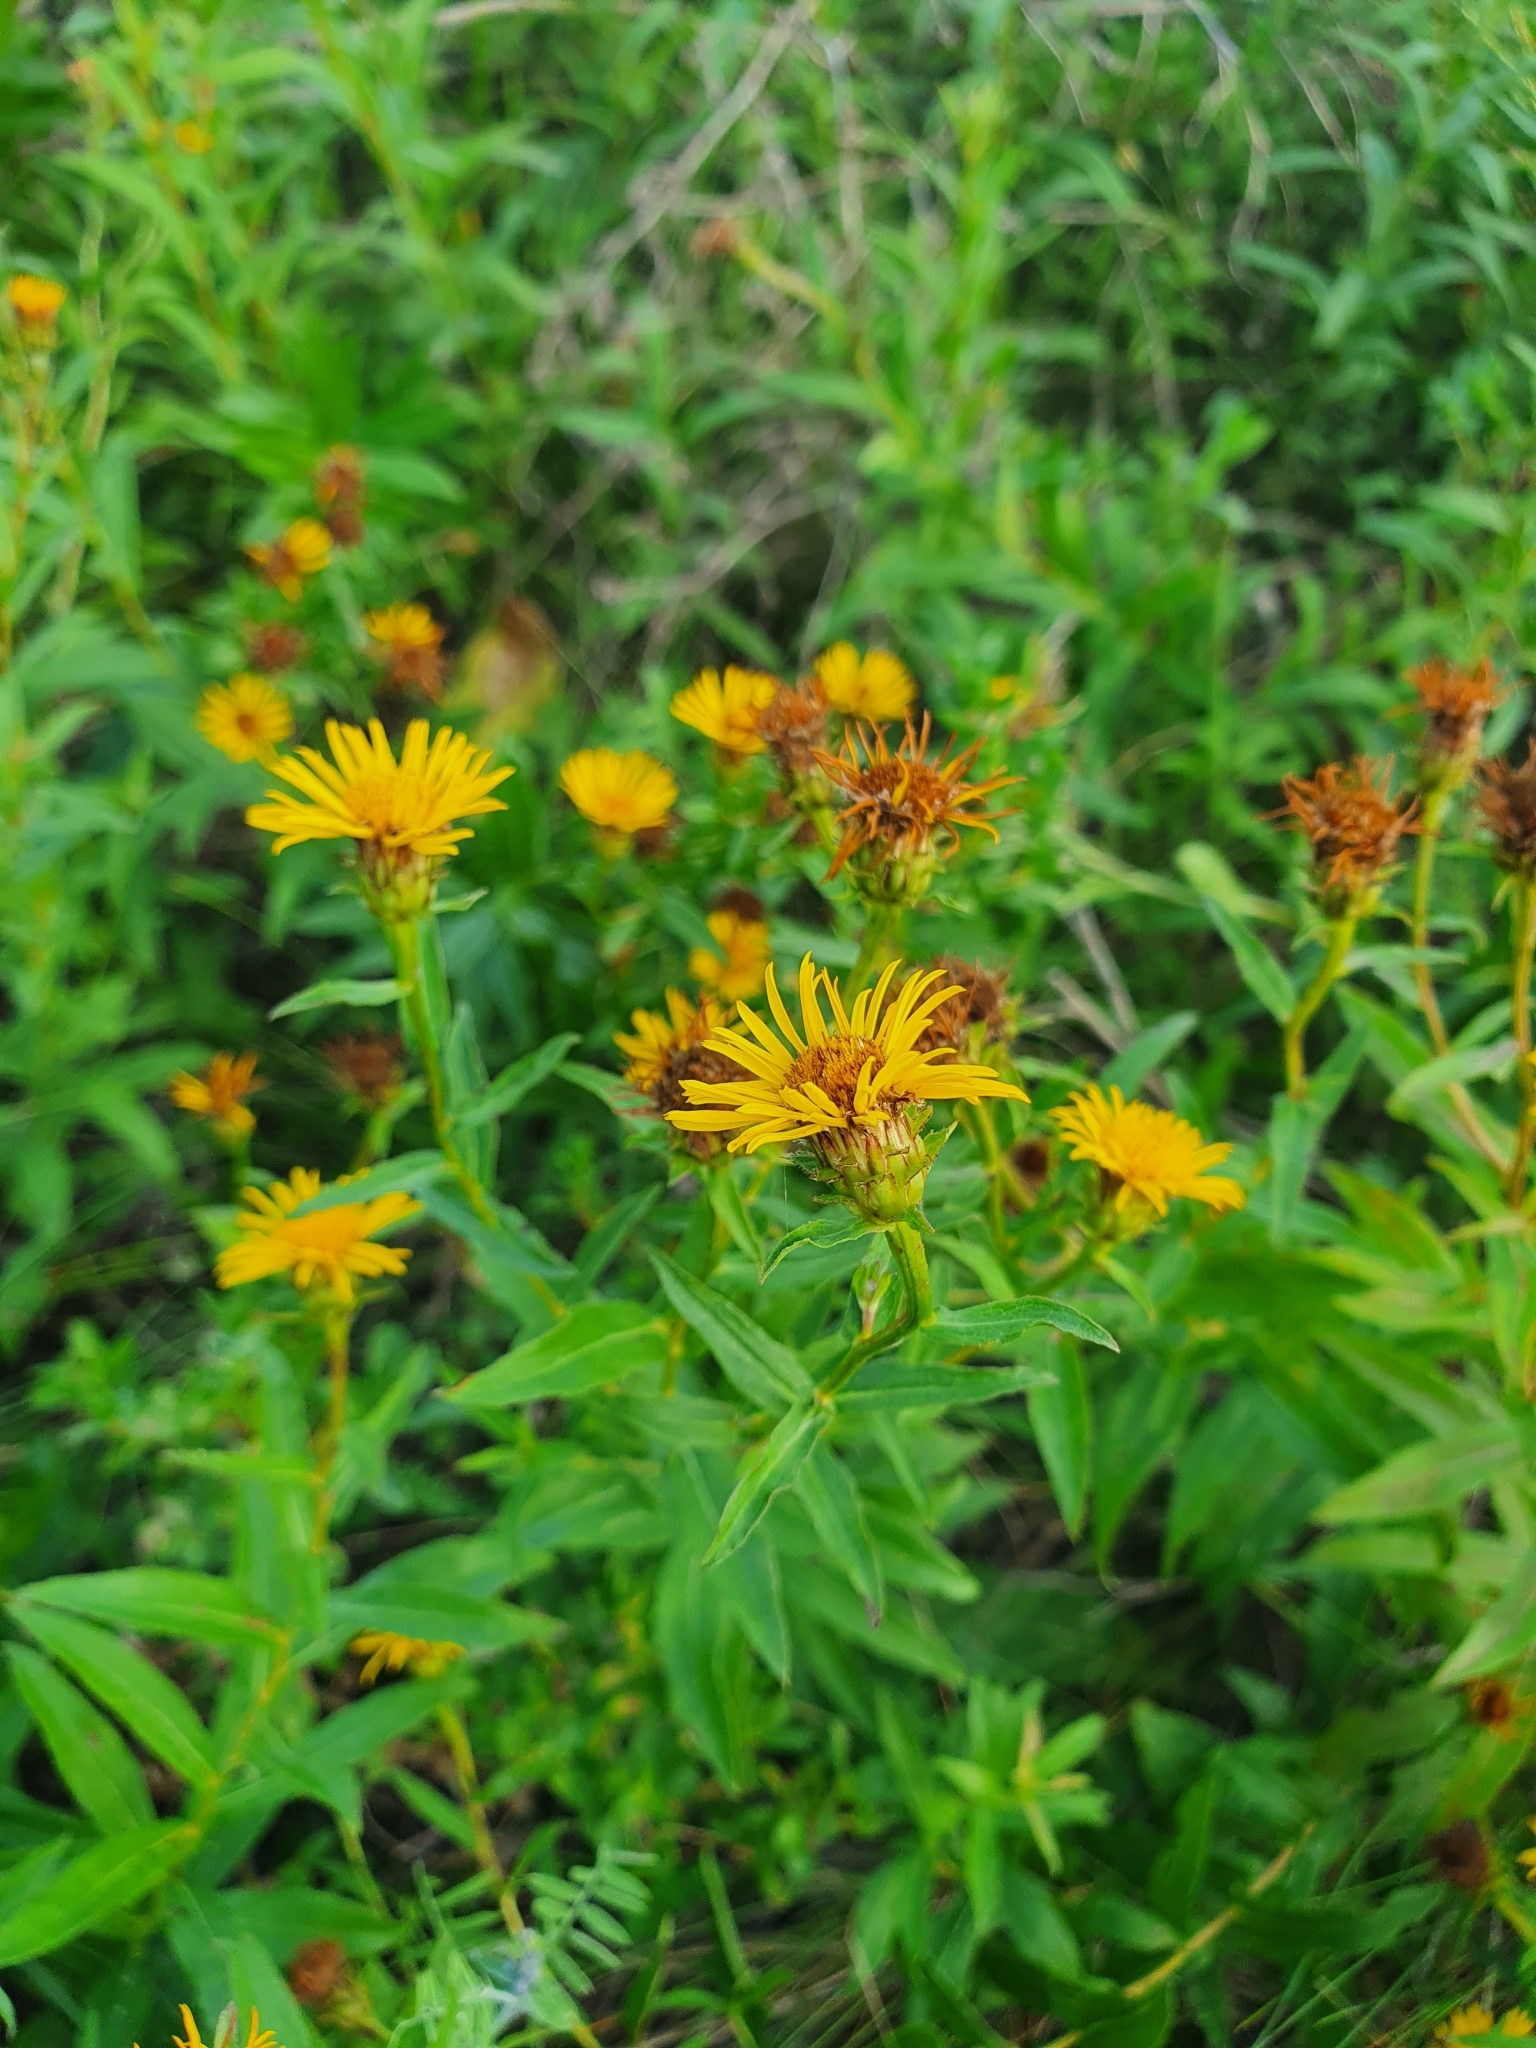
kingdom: Plantae
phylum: Tracheophyta
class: Magnoliopsida
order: Asterales
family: Asteraceae
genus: Pentanema
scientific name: Pentanema salicinum
